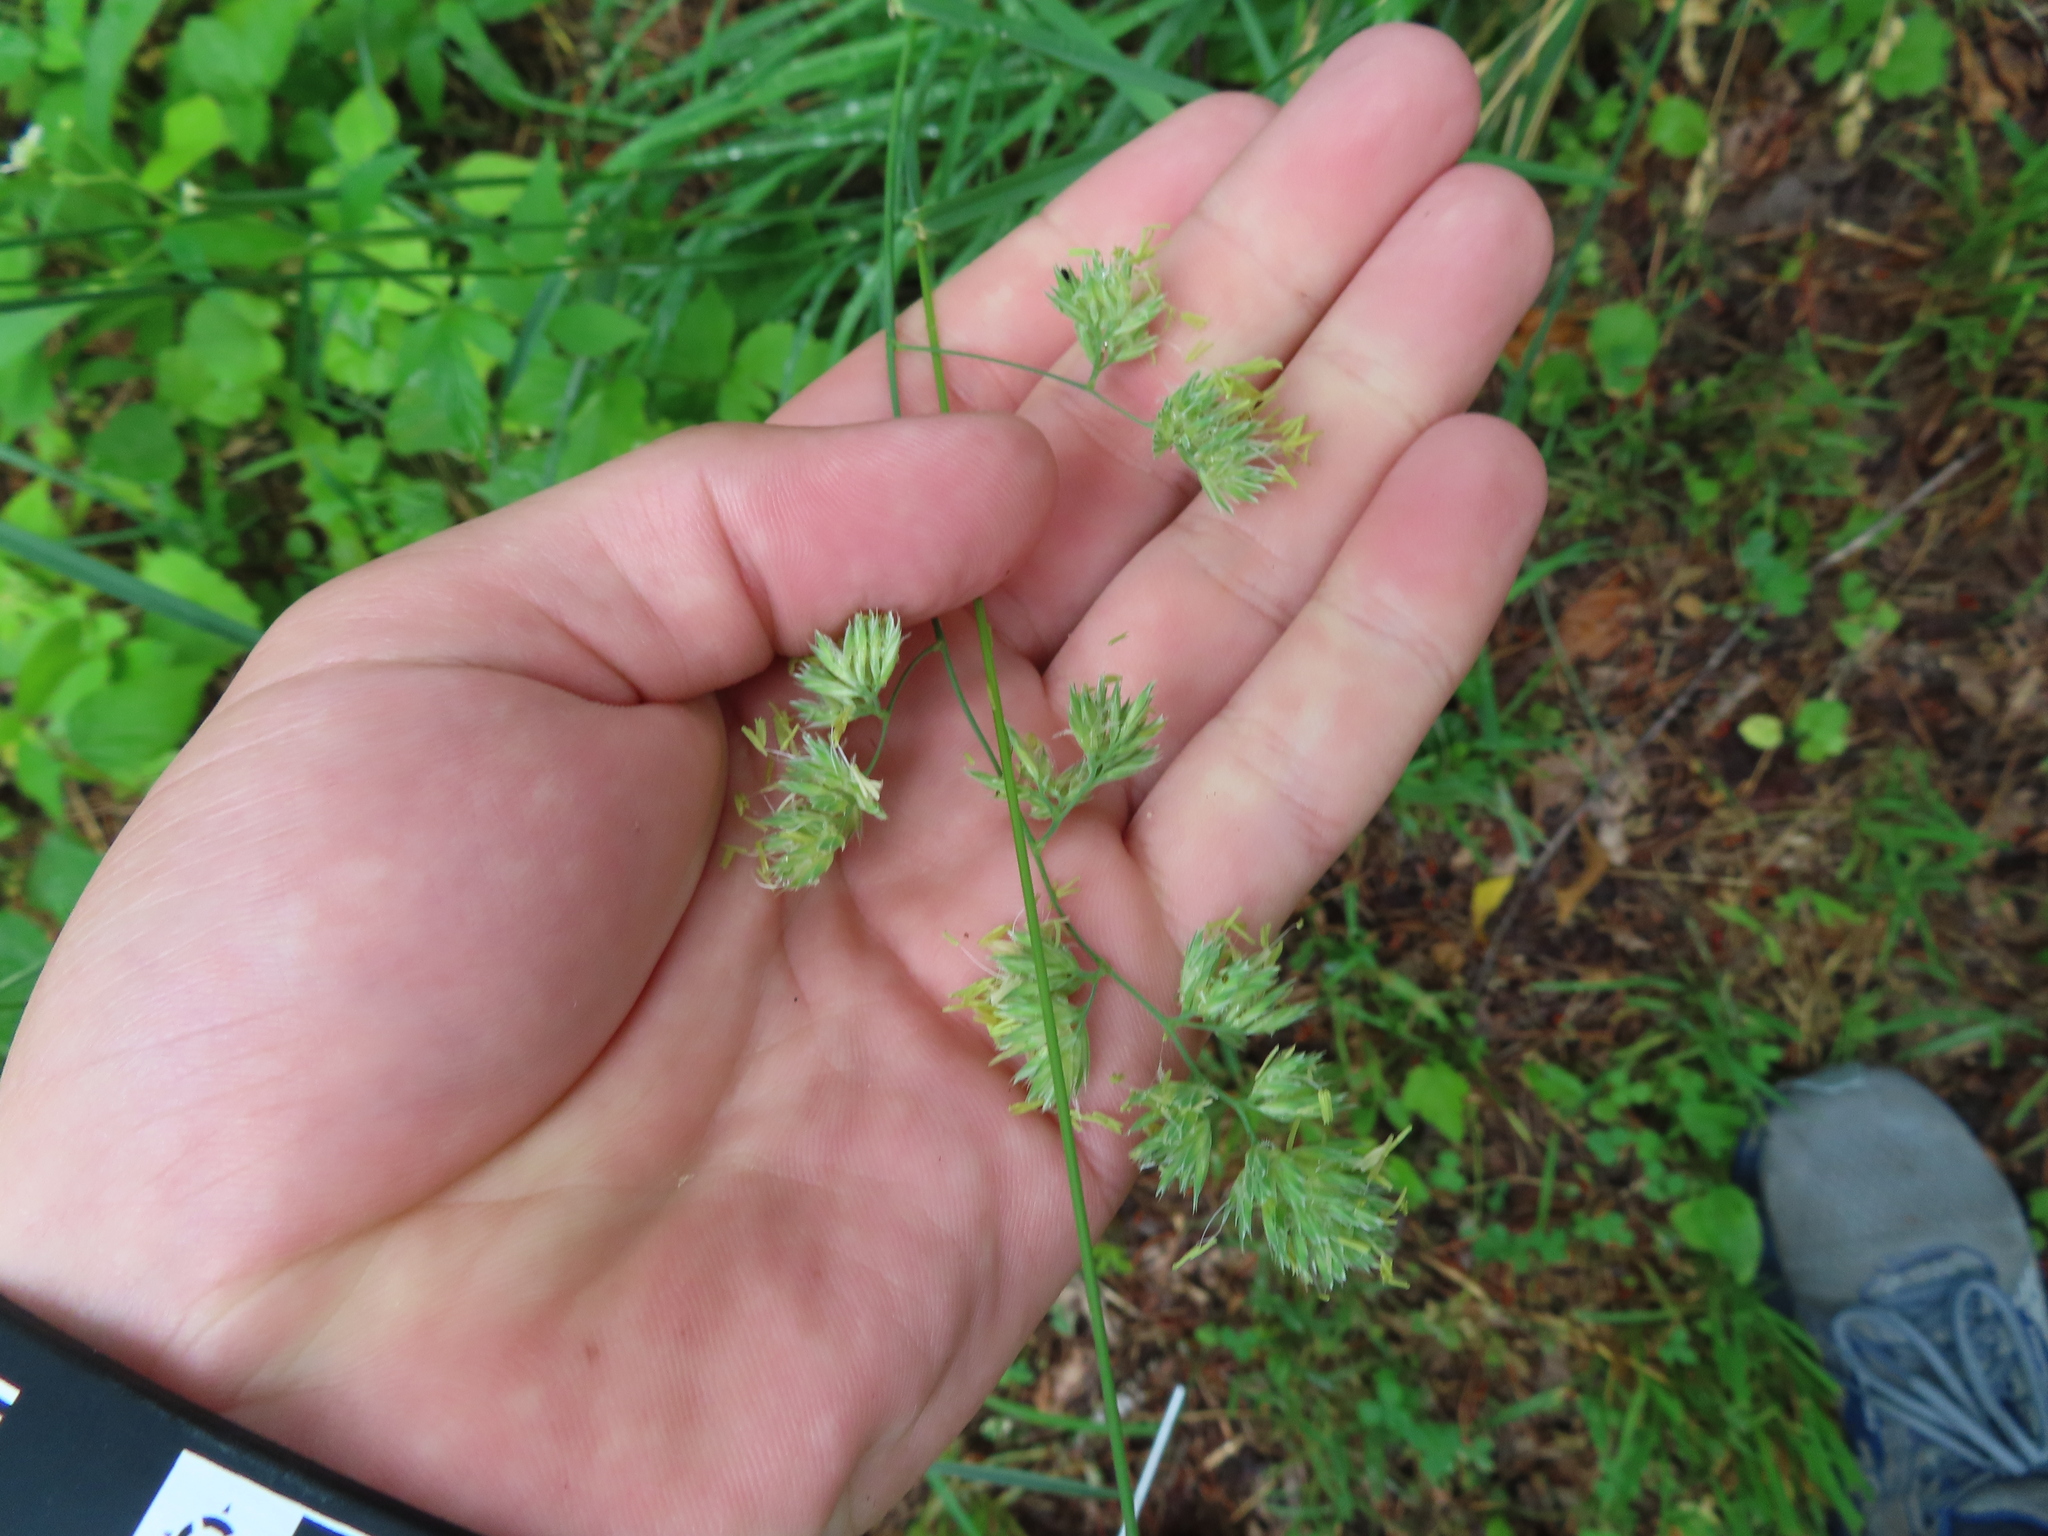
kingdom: Plantae
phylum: Tracheophyta
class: Liliopsida
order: Poales
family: Poaceae
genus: Dactylis
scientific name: Dactylis glomerata
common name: Orchardgrass
